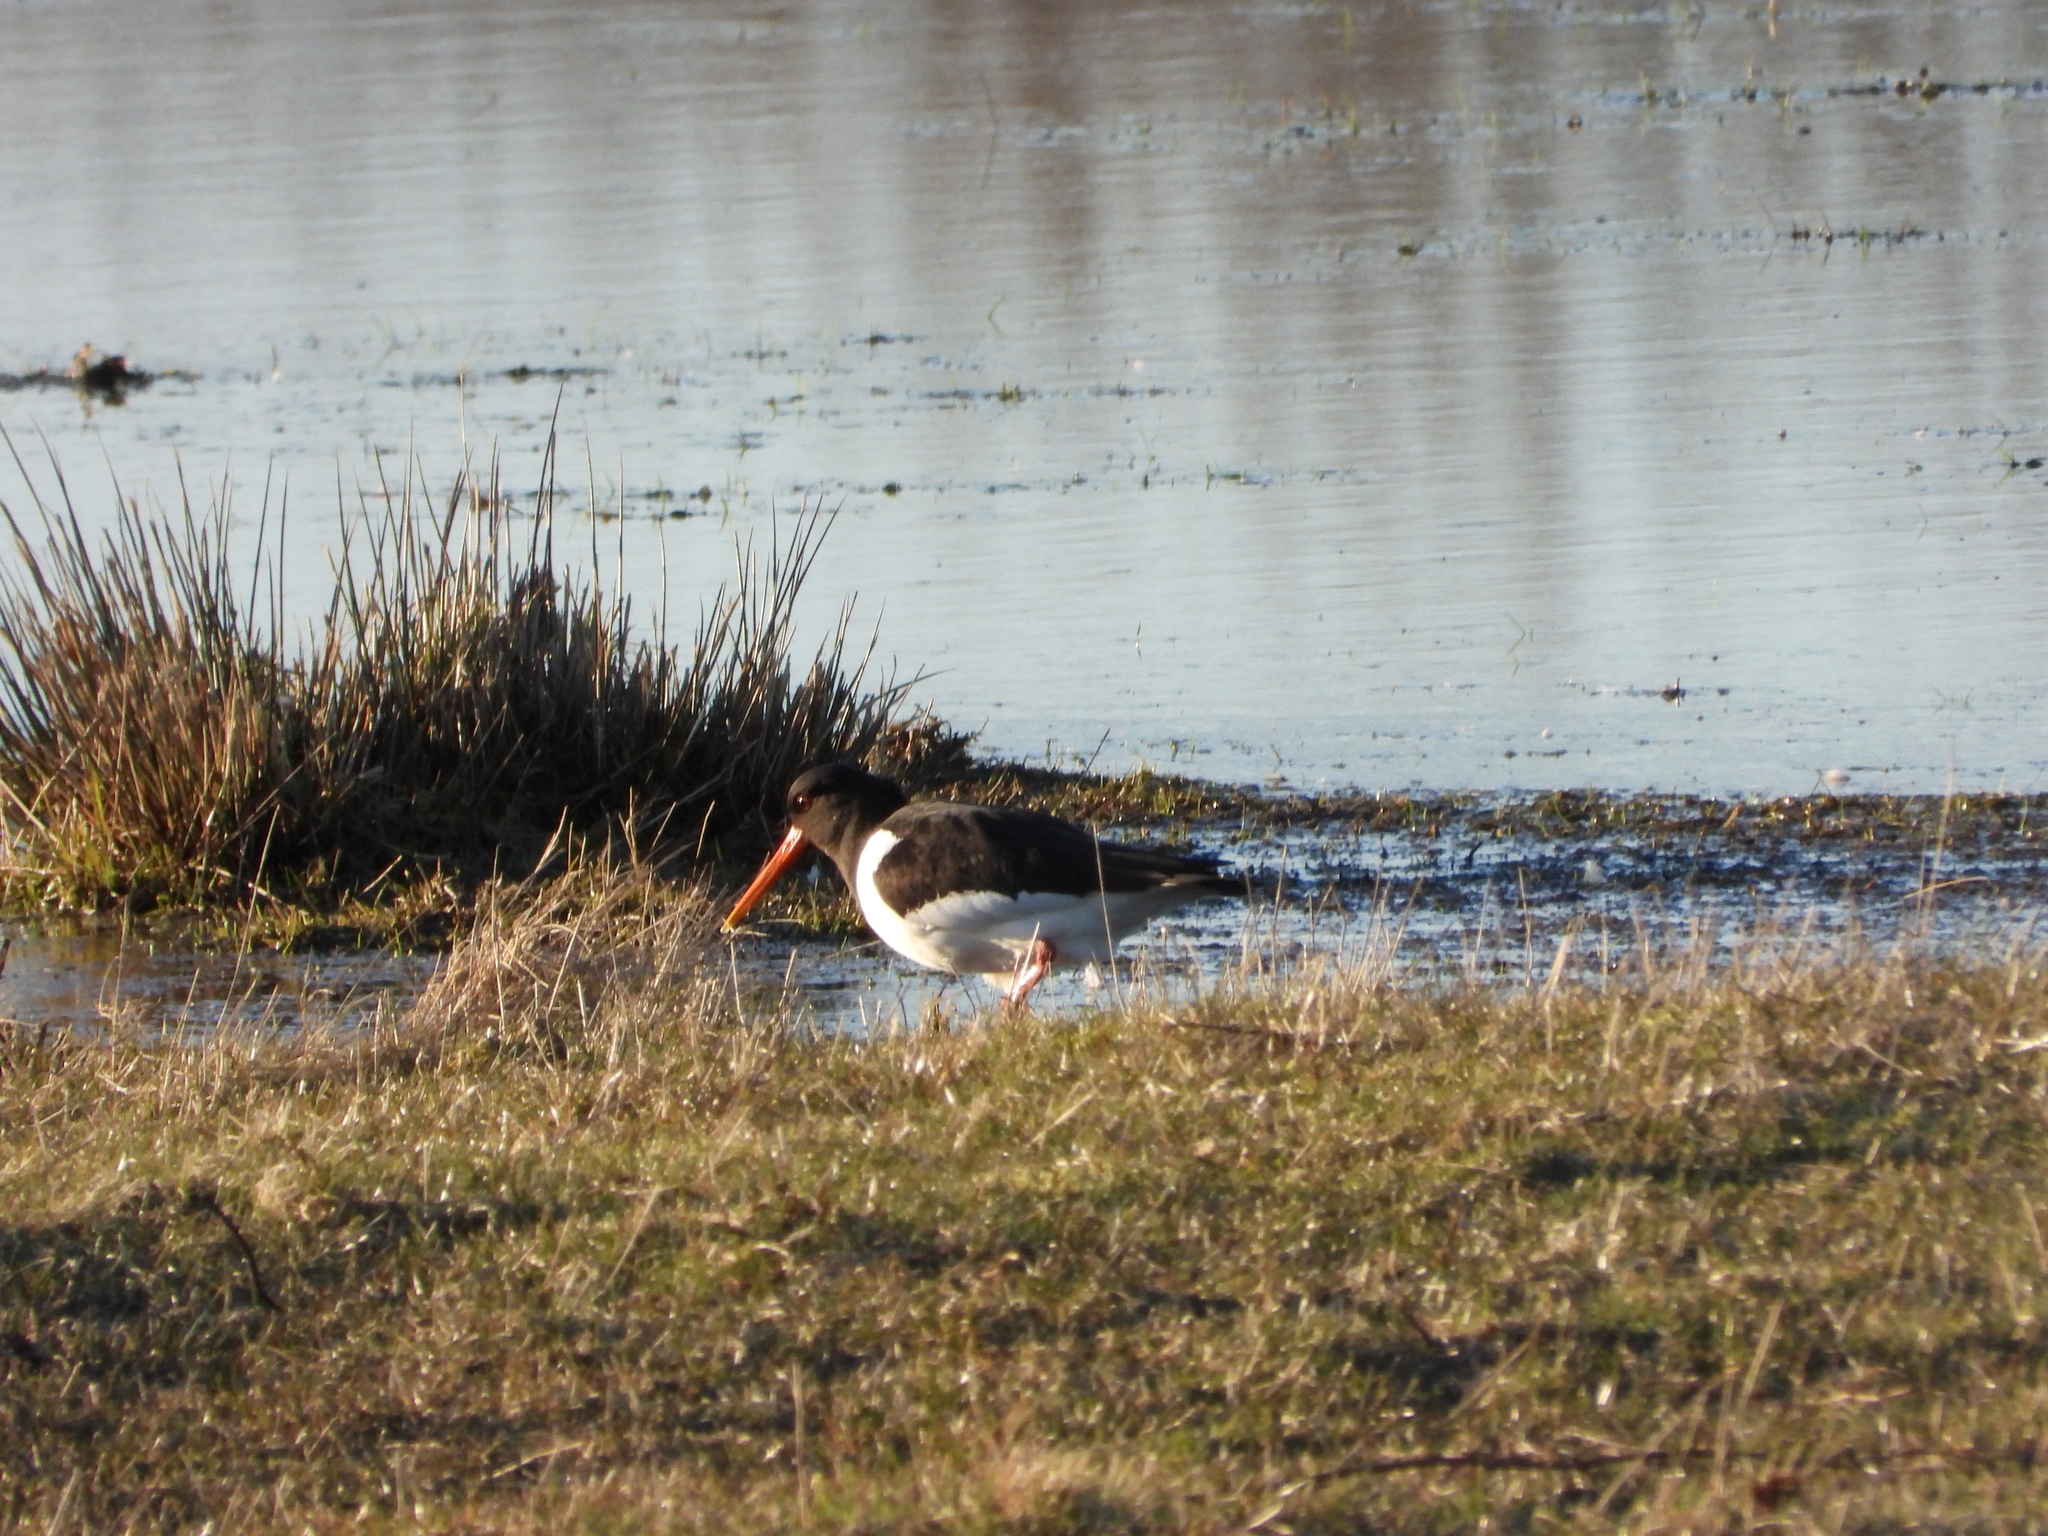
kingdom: Animalia
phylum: Chordata
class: Aves
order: Charadriiformes
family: Haematopodidae
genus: Haematopus
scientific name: Haematopus ostralegus
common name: Eurasian oystercatcher
